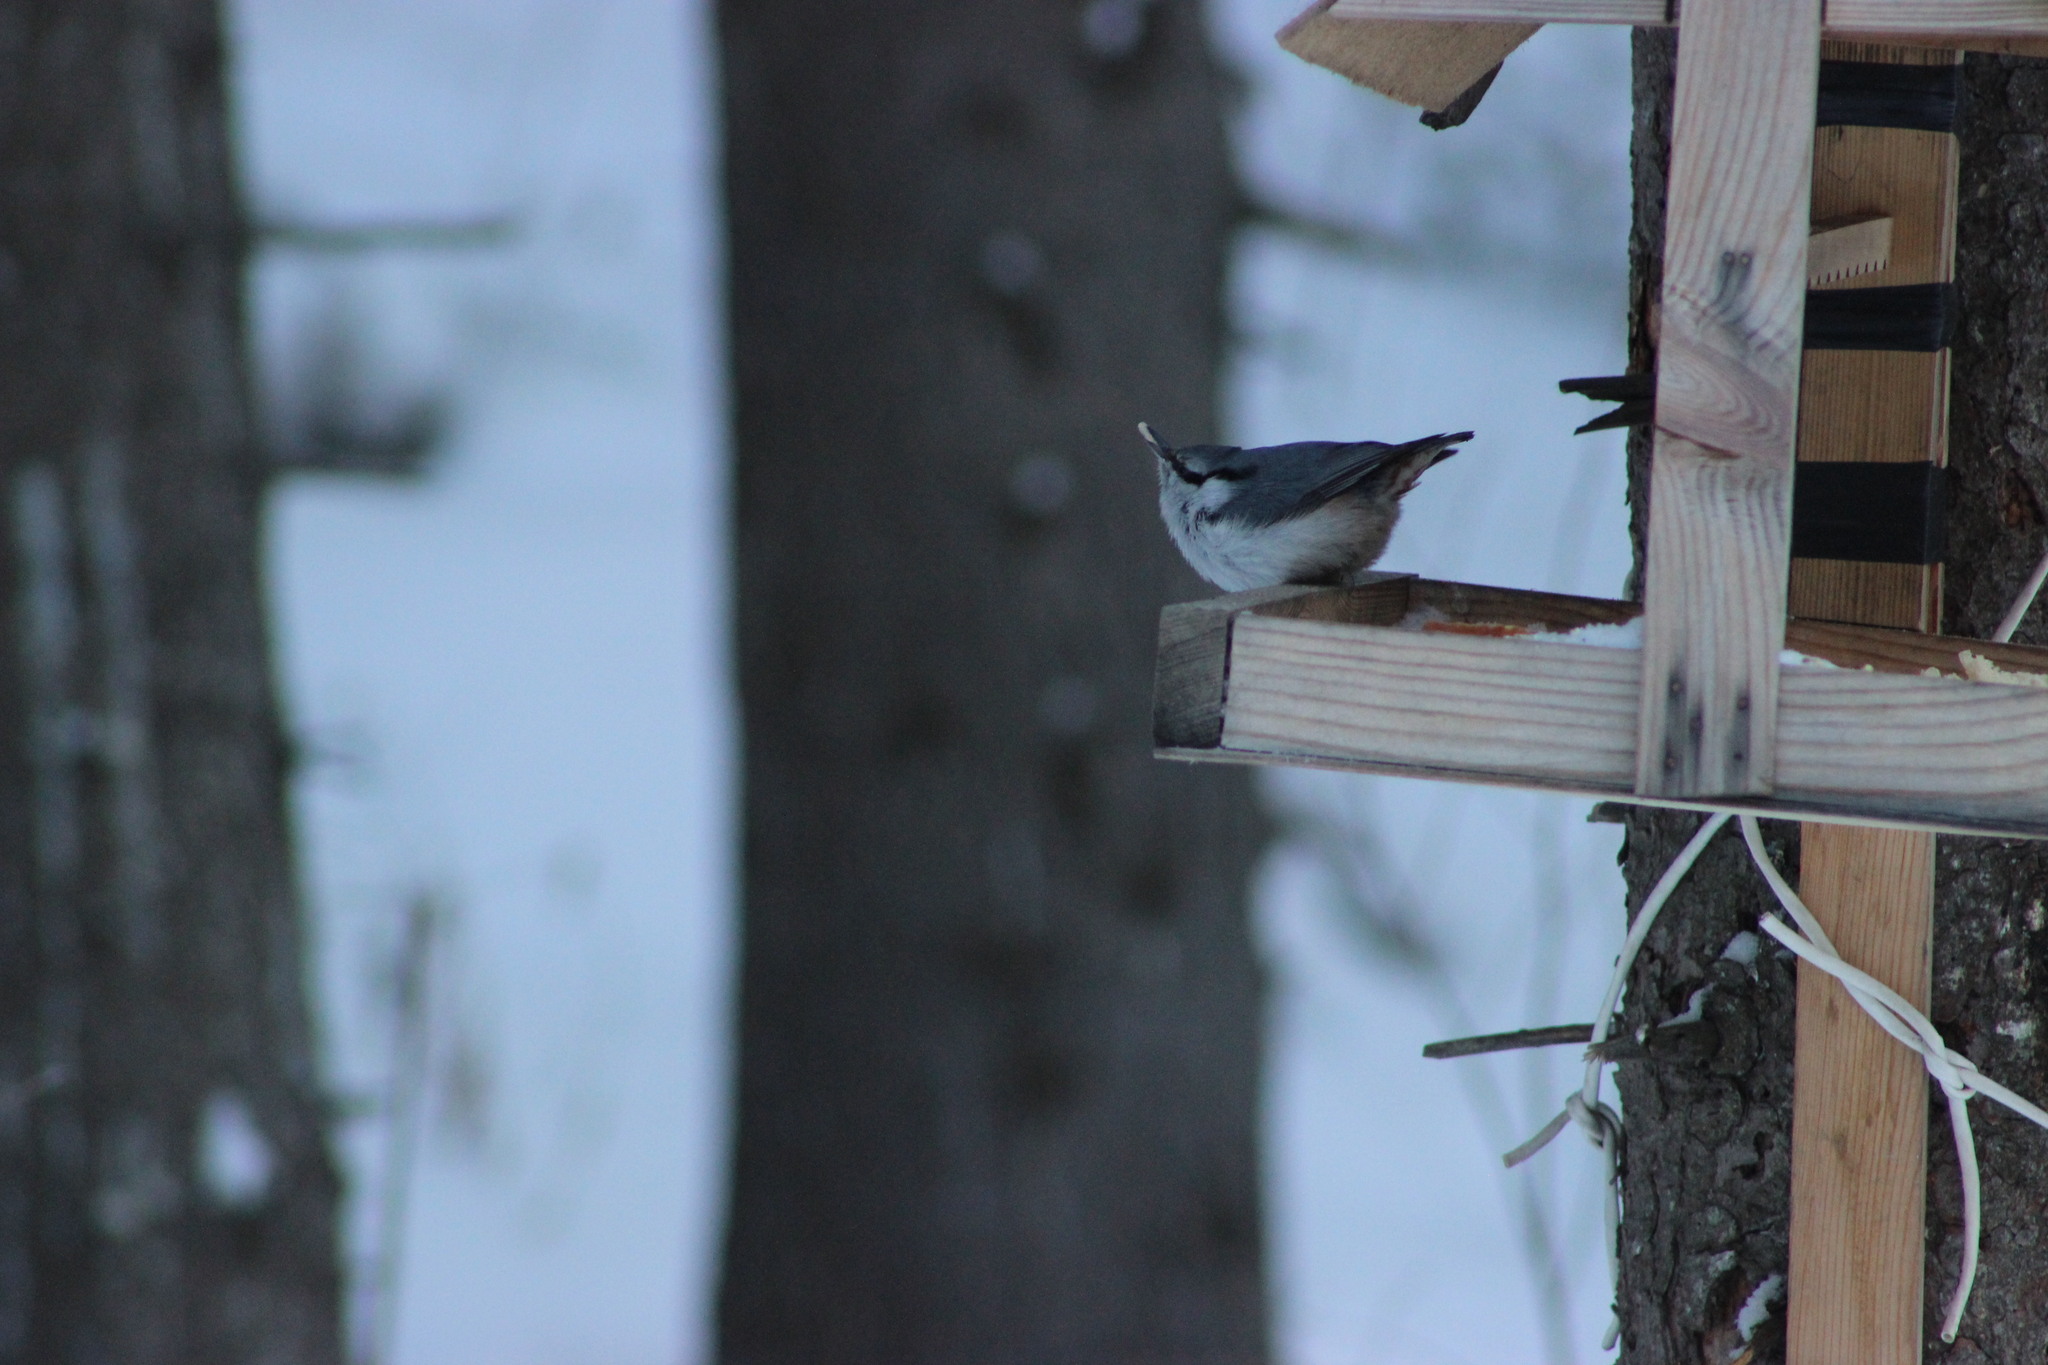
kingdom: Animalia
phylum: Chordata
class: Aves
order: Passeriformes
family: Sittidae
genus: Sitta
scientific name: Sitta europaea
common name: Eurasian nuthatch
